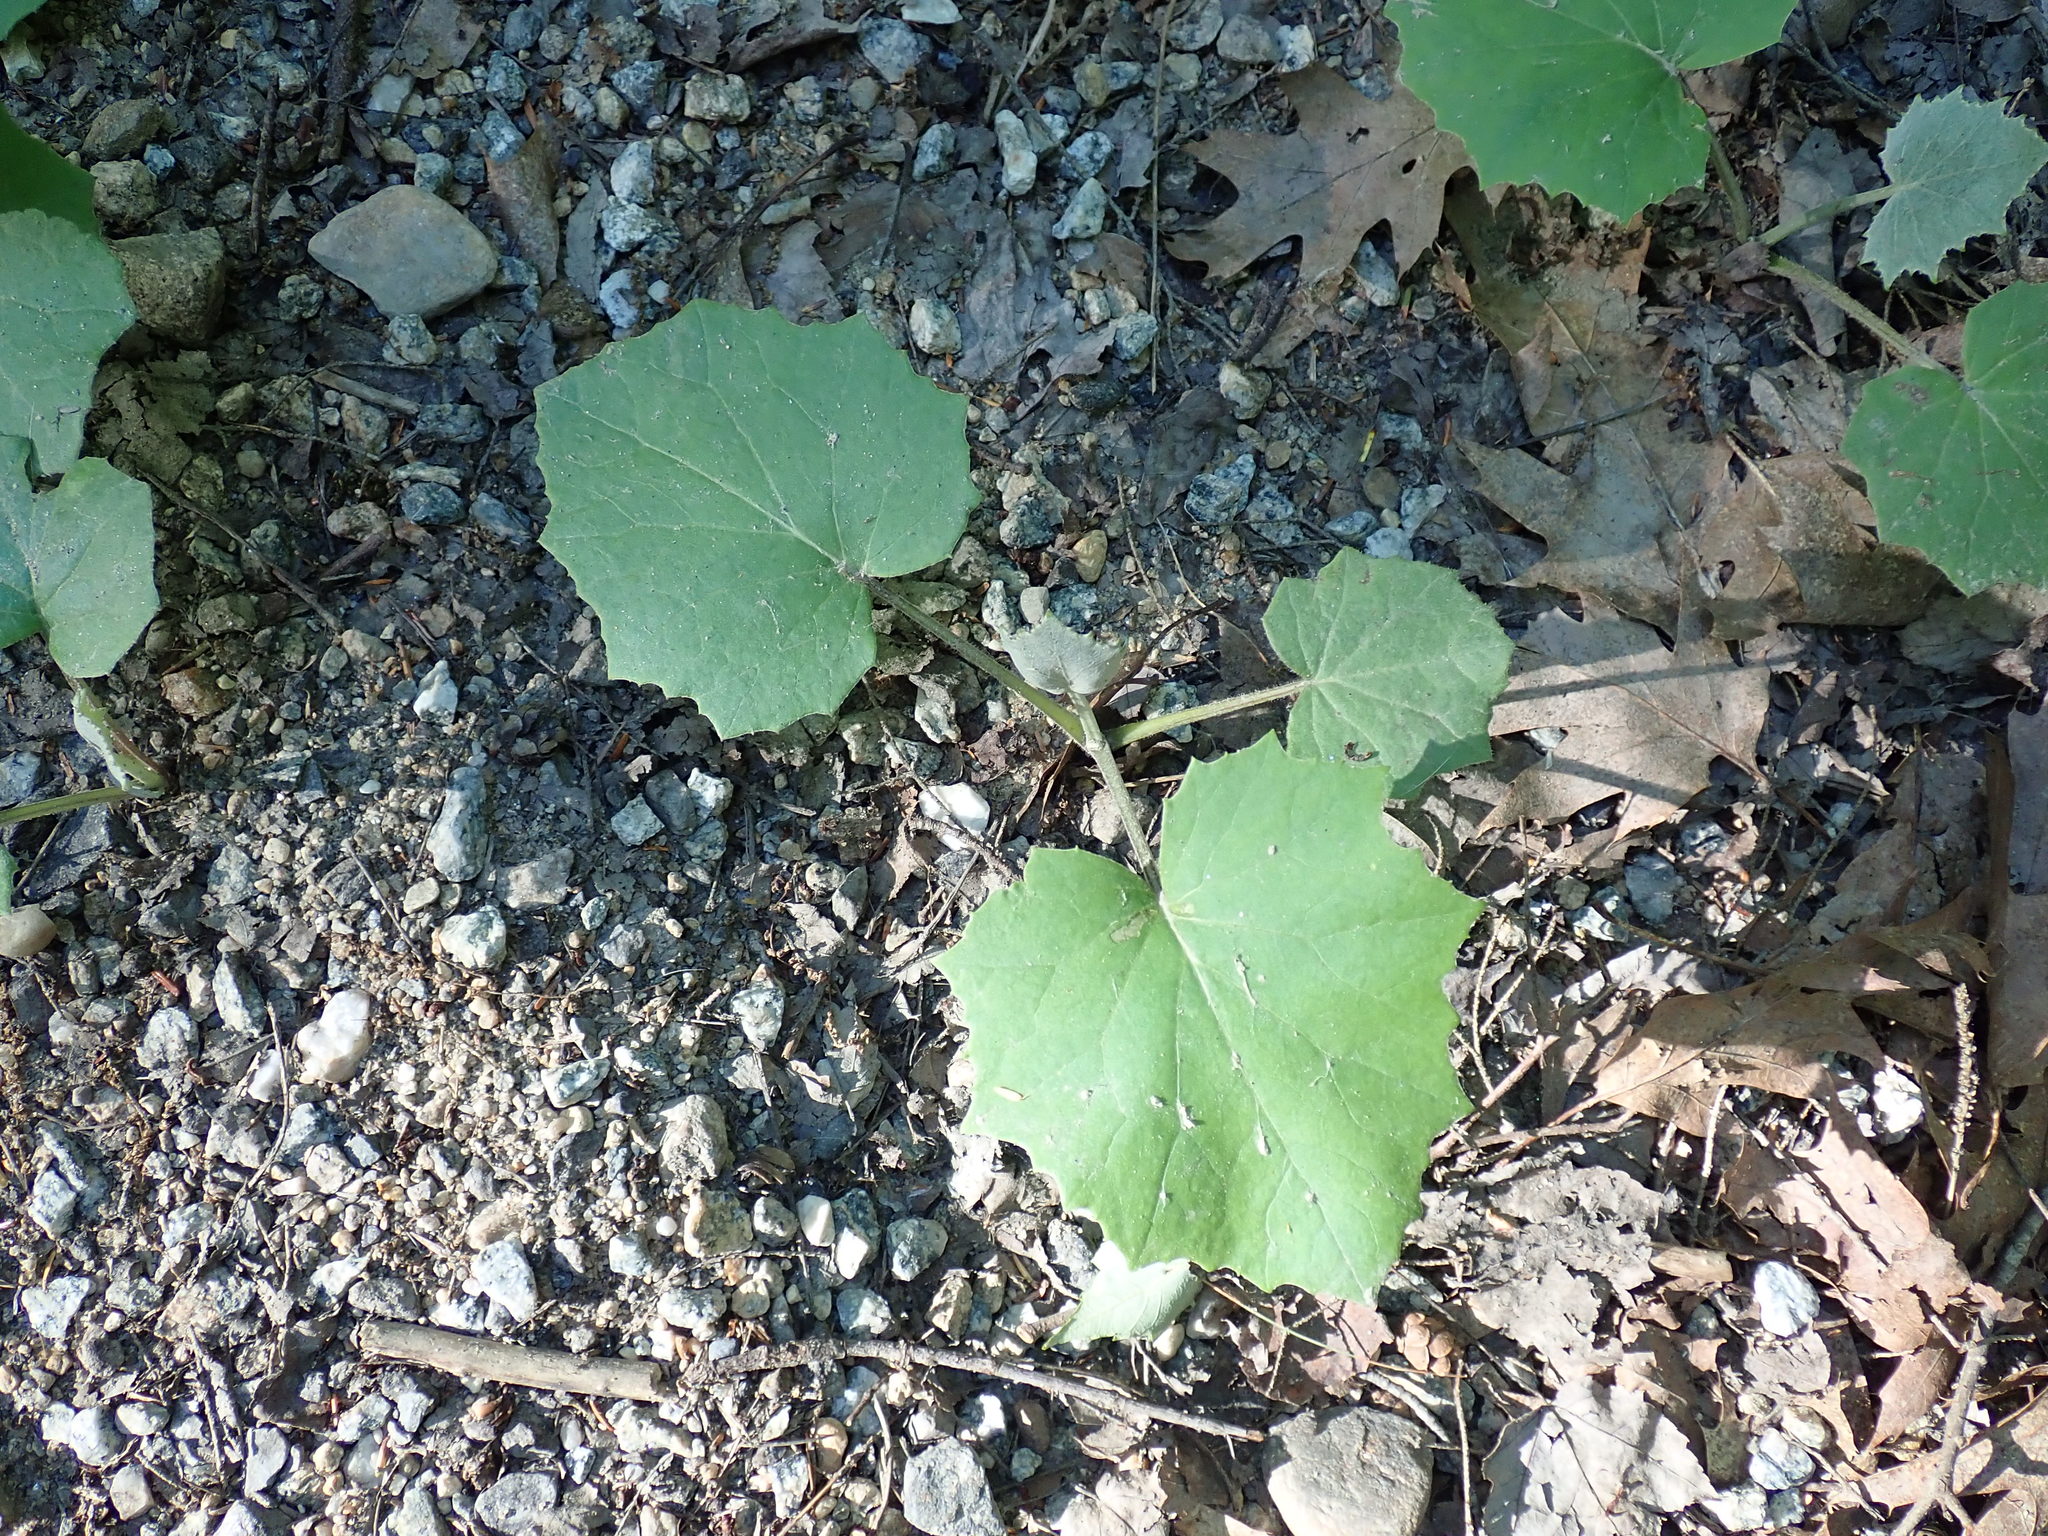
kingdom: Plantae
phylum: Tracheophyta
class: Magnoliopsida
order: Asterales
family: Asteraceae
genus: Tussilago
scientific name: Tussilago farfara
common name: Coltsfoot
